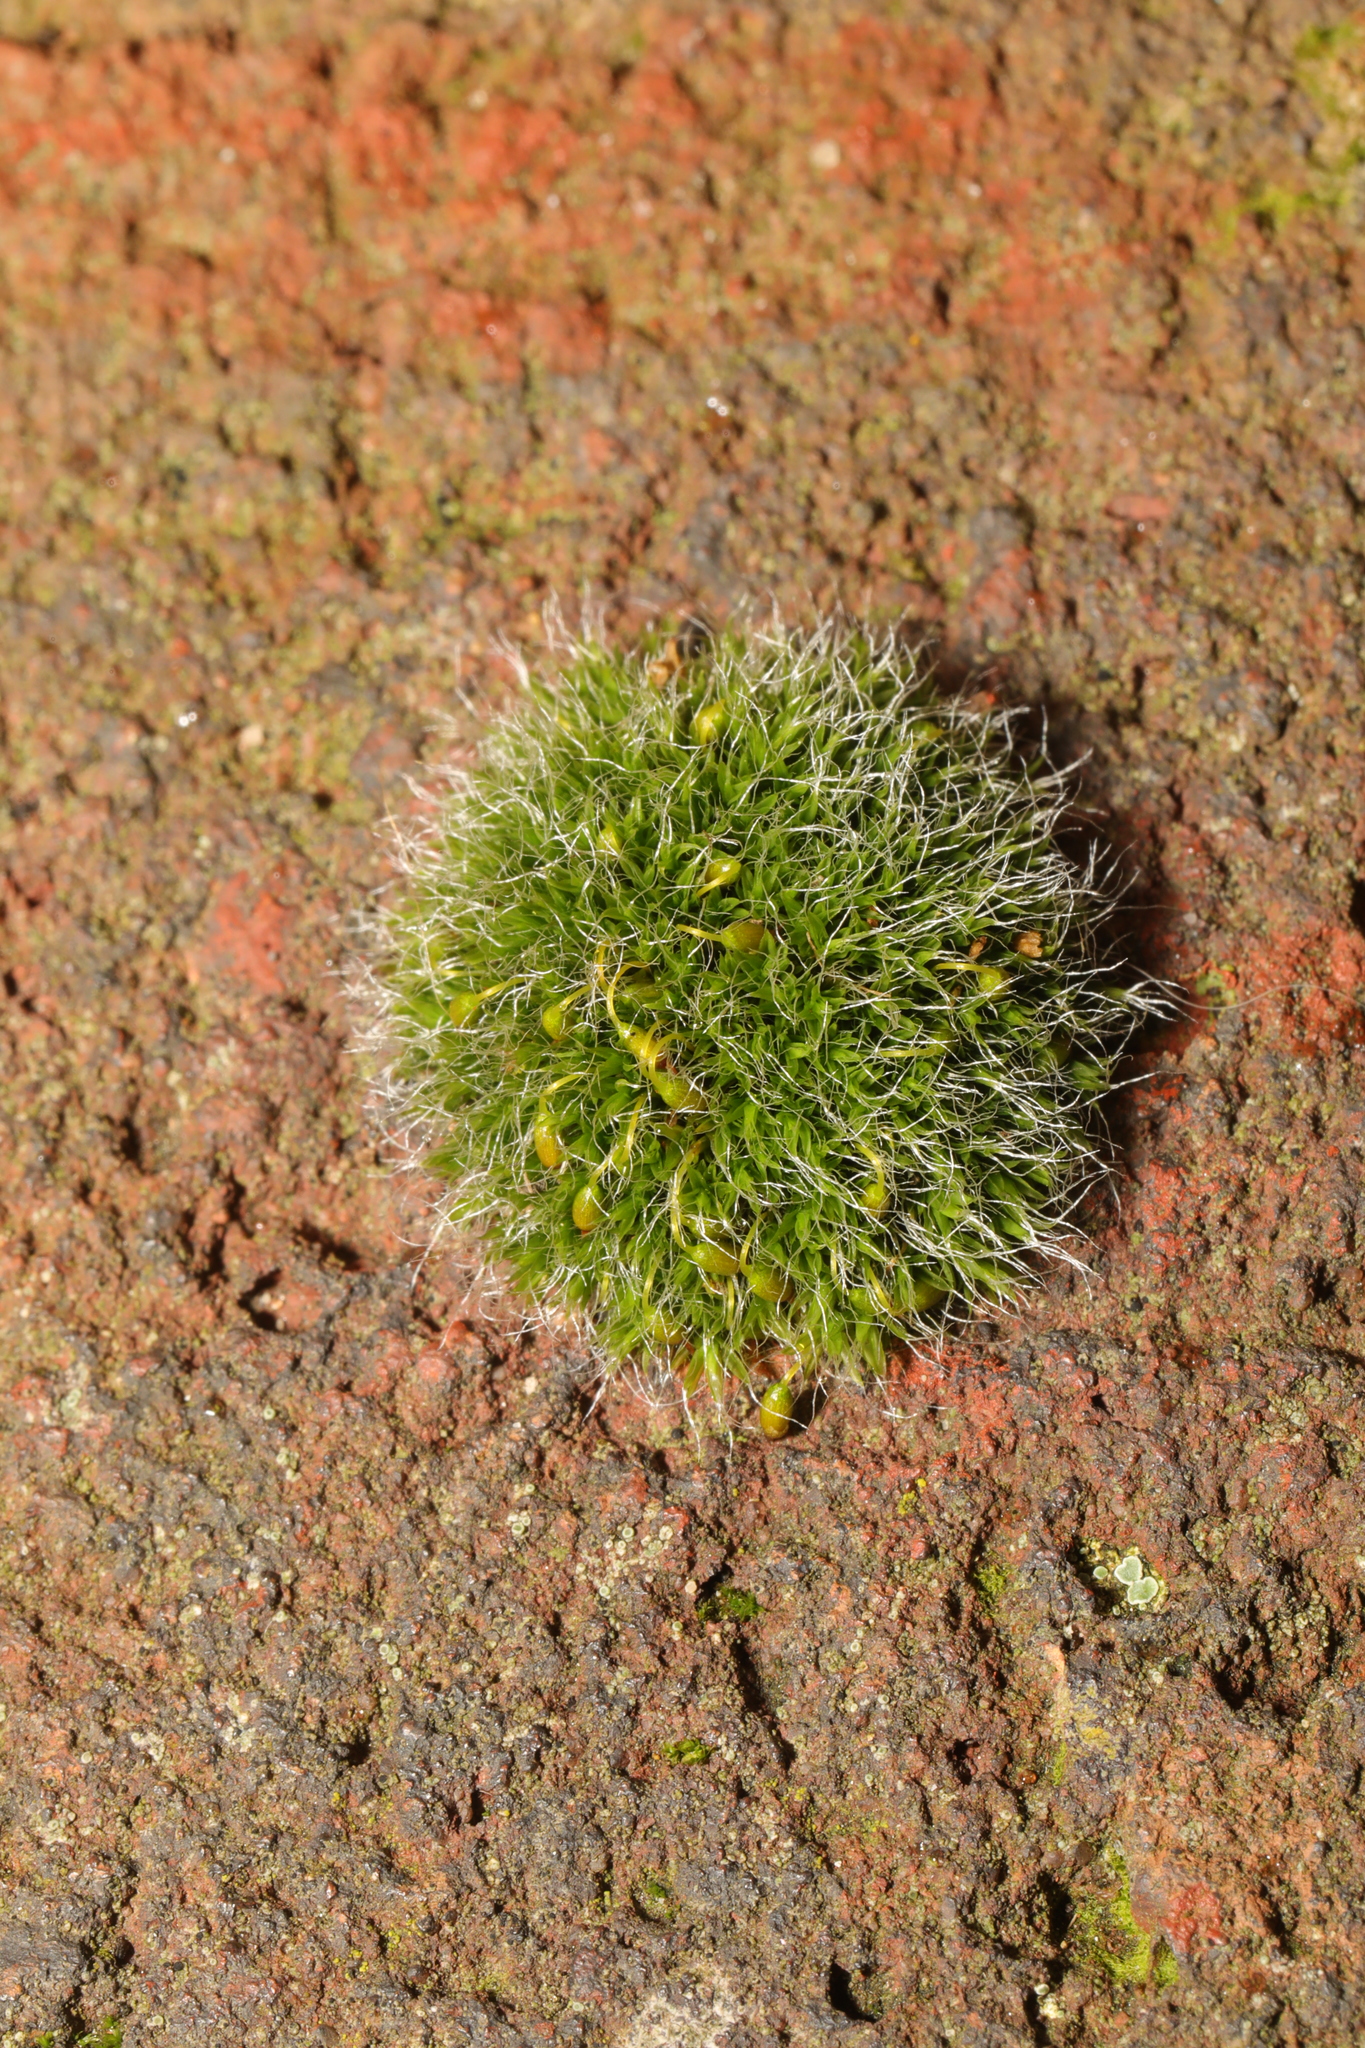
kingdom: Plantae
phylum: Bryophyta
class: Bryopsida
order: Grimmiales
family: Grimmiaceae
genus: Grimmia
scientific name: Grimmia pulvinata
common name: Grey-cushioned grimmia
